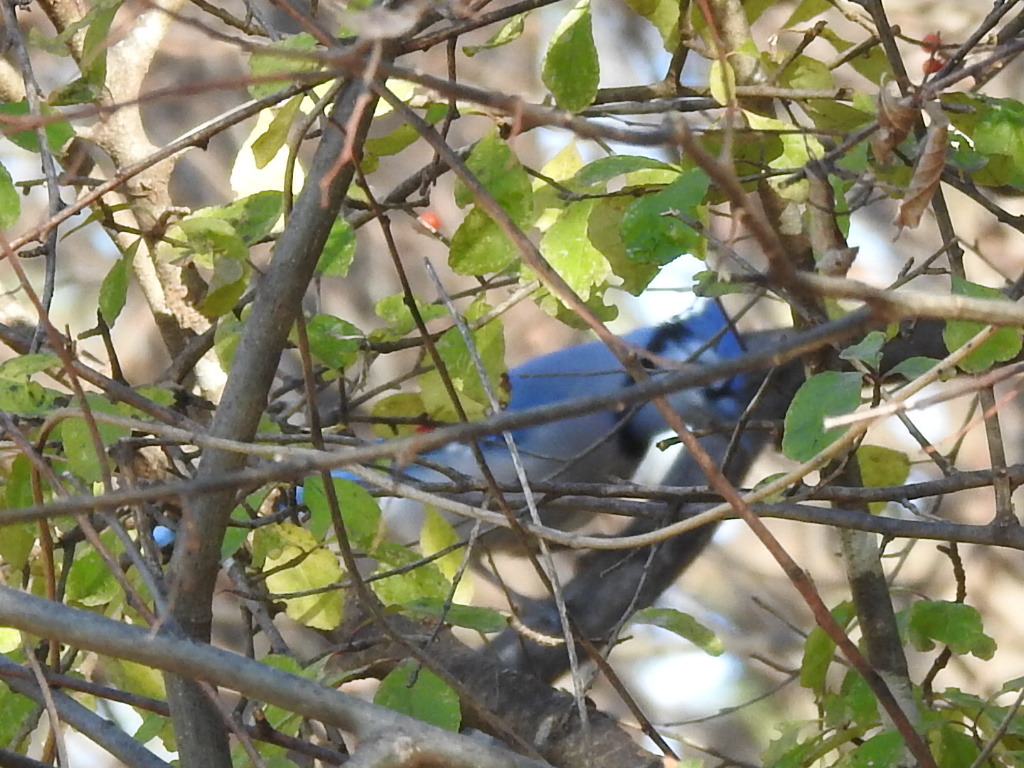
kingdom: Animalia
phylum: Chordata
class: Aves
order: Passeriformes
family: Corvidae
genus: Cyanocitta
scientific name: Cyanocitta cristata
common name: Blue jay
